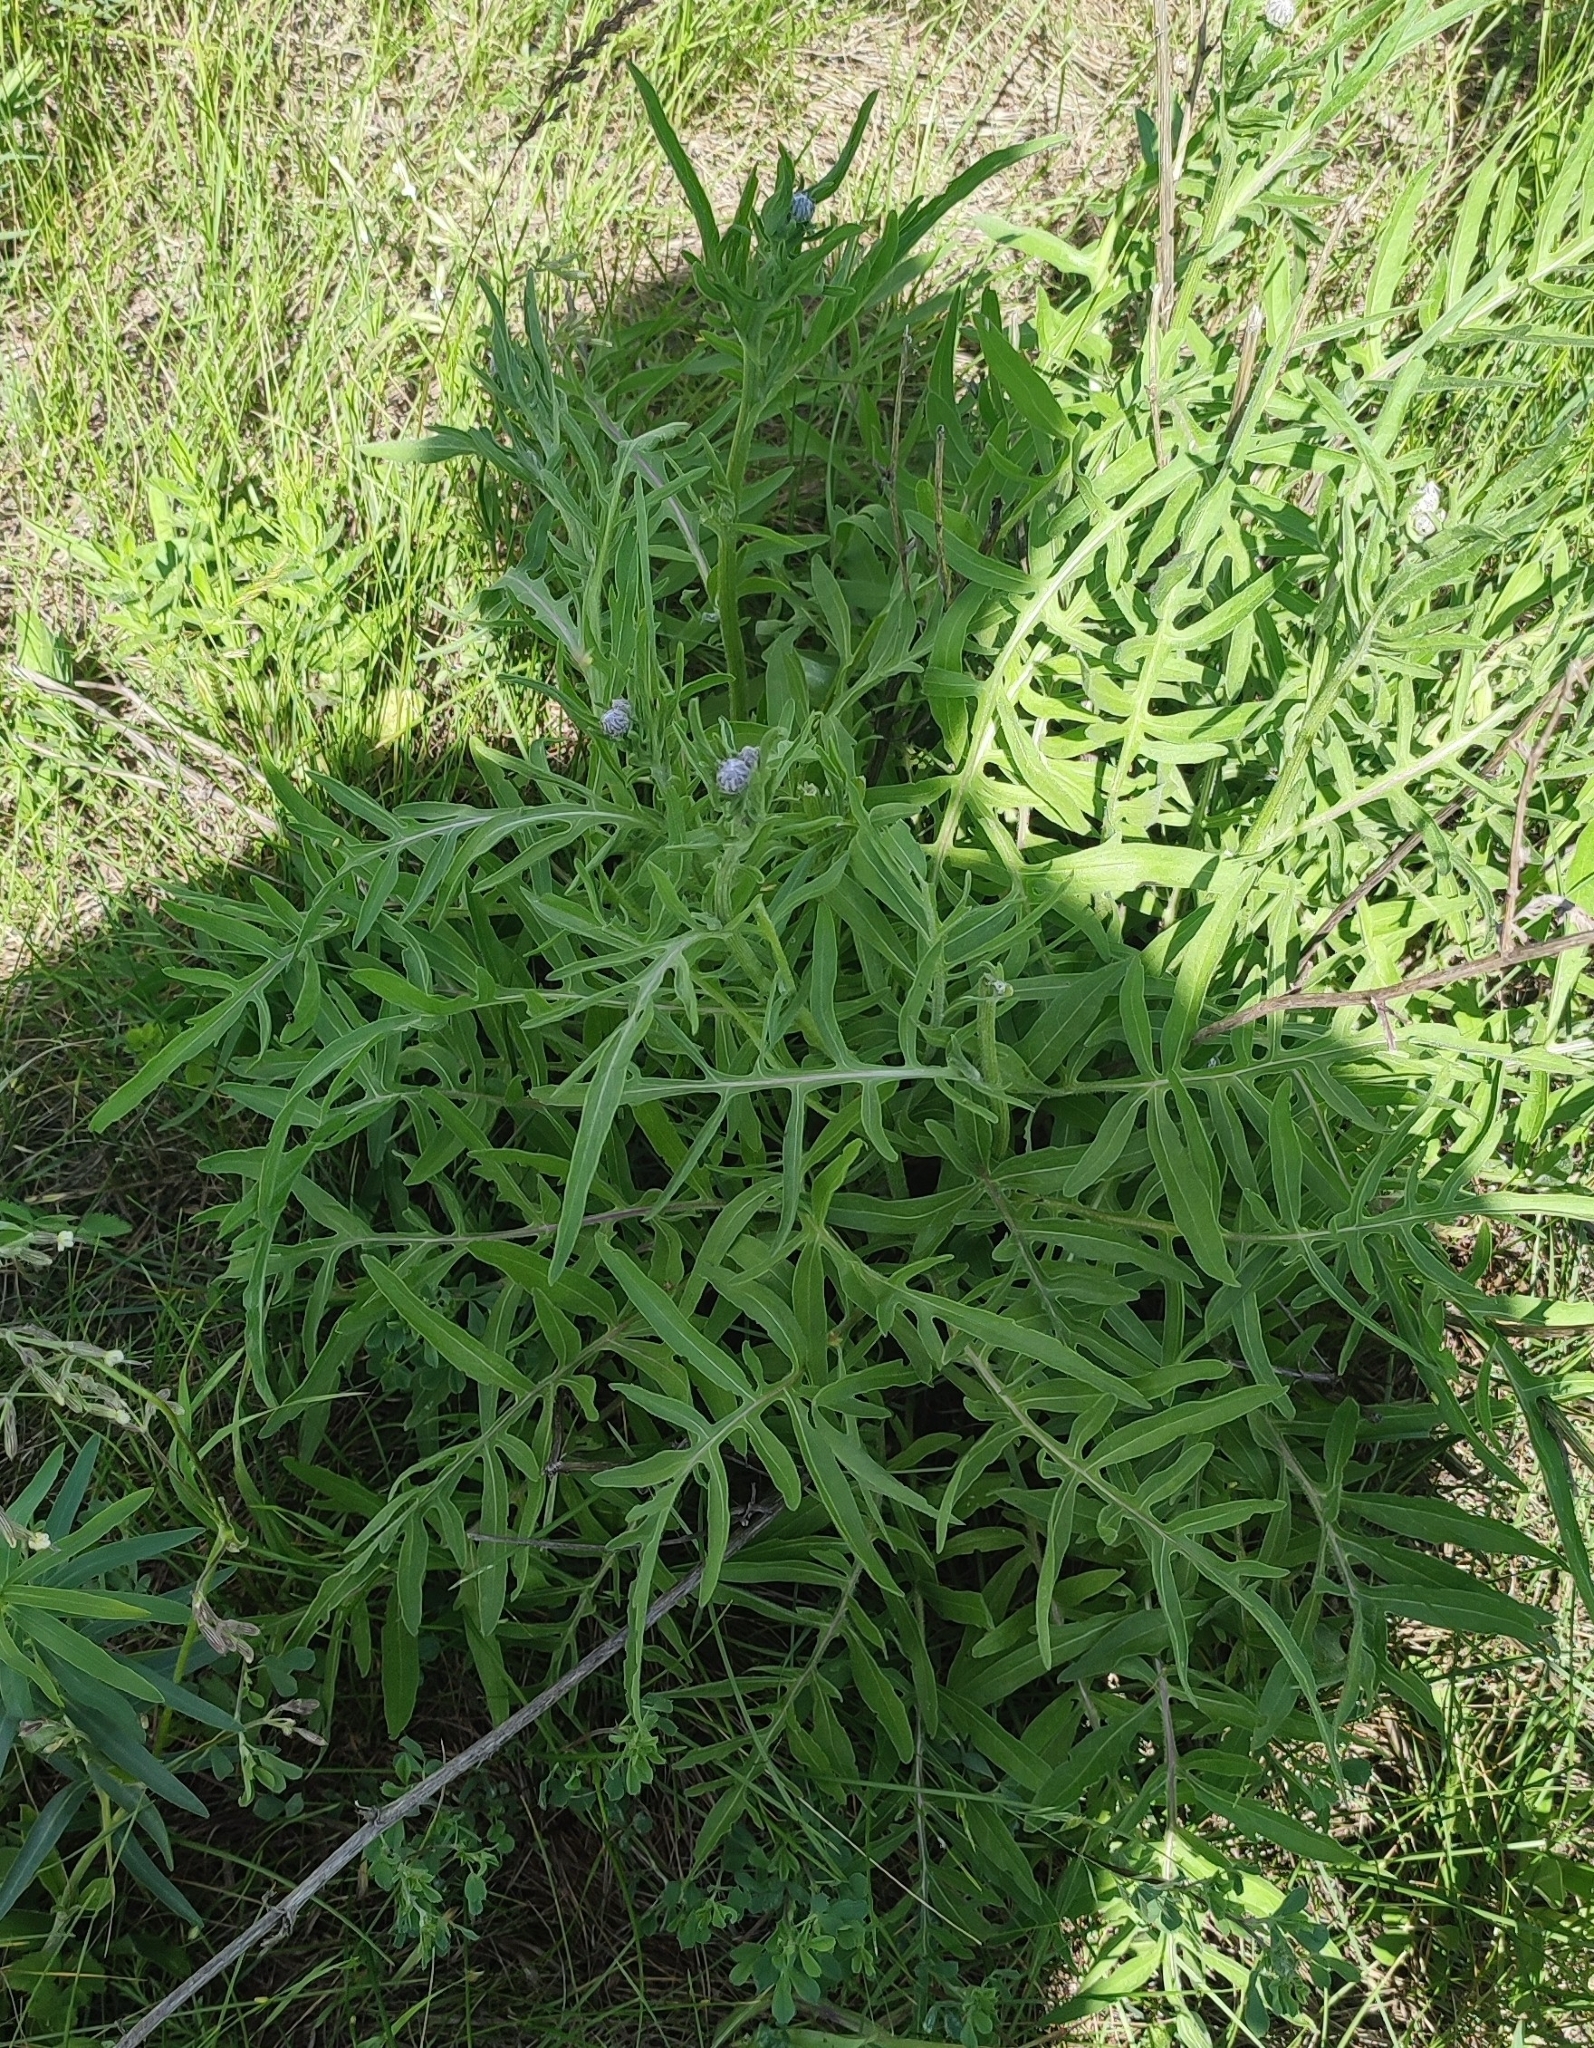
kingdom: Plantae
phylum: Tracheophyta
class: Magnoliopsida
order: Asterales
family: Asteraceae
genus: Centaurea
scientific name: Centaurea scabiosa
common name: Greater knapweed
